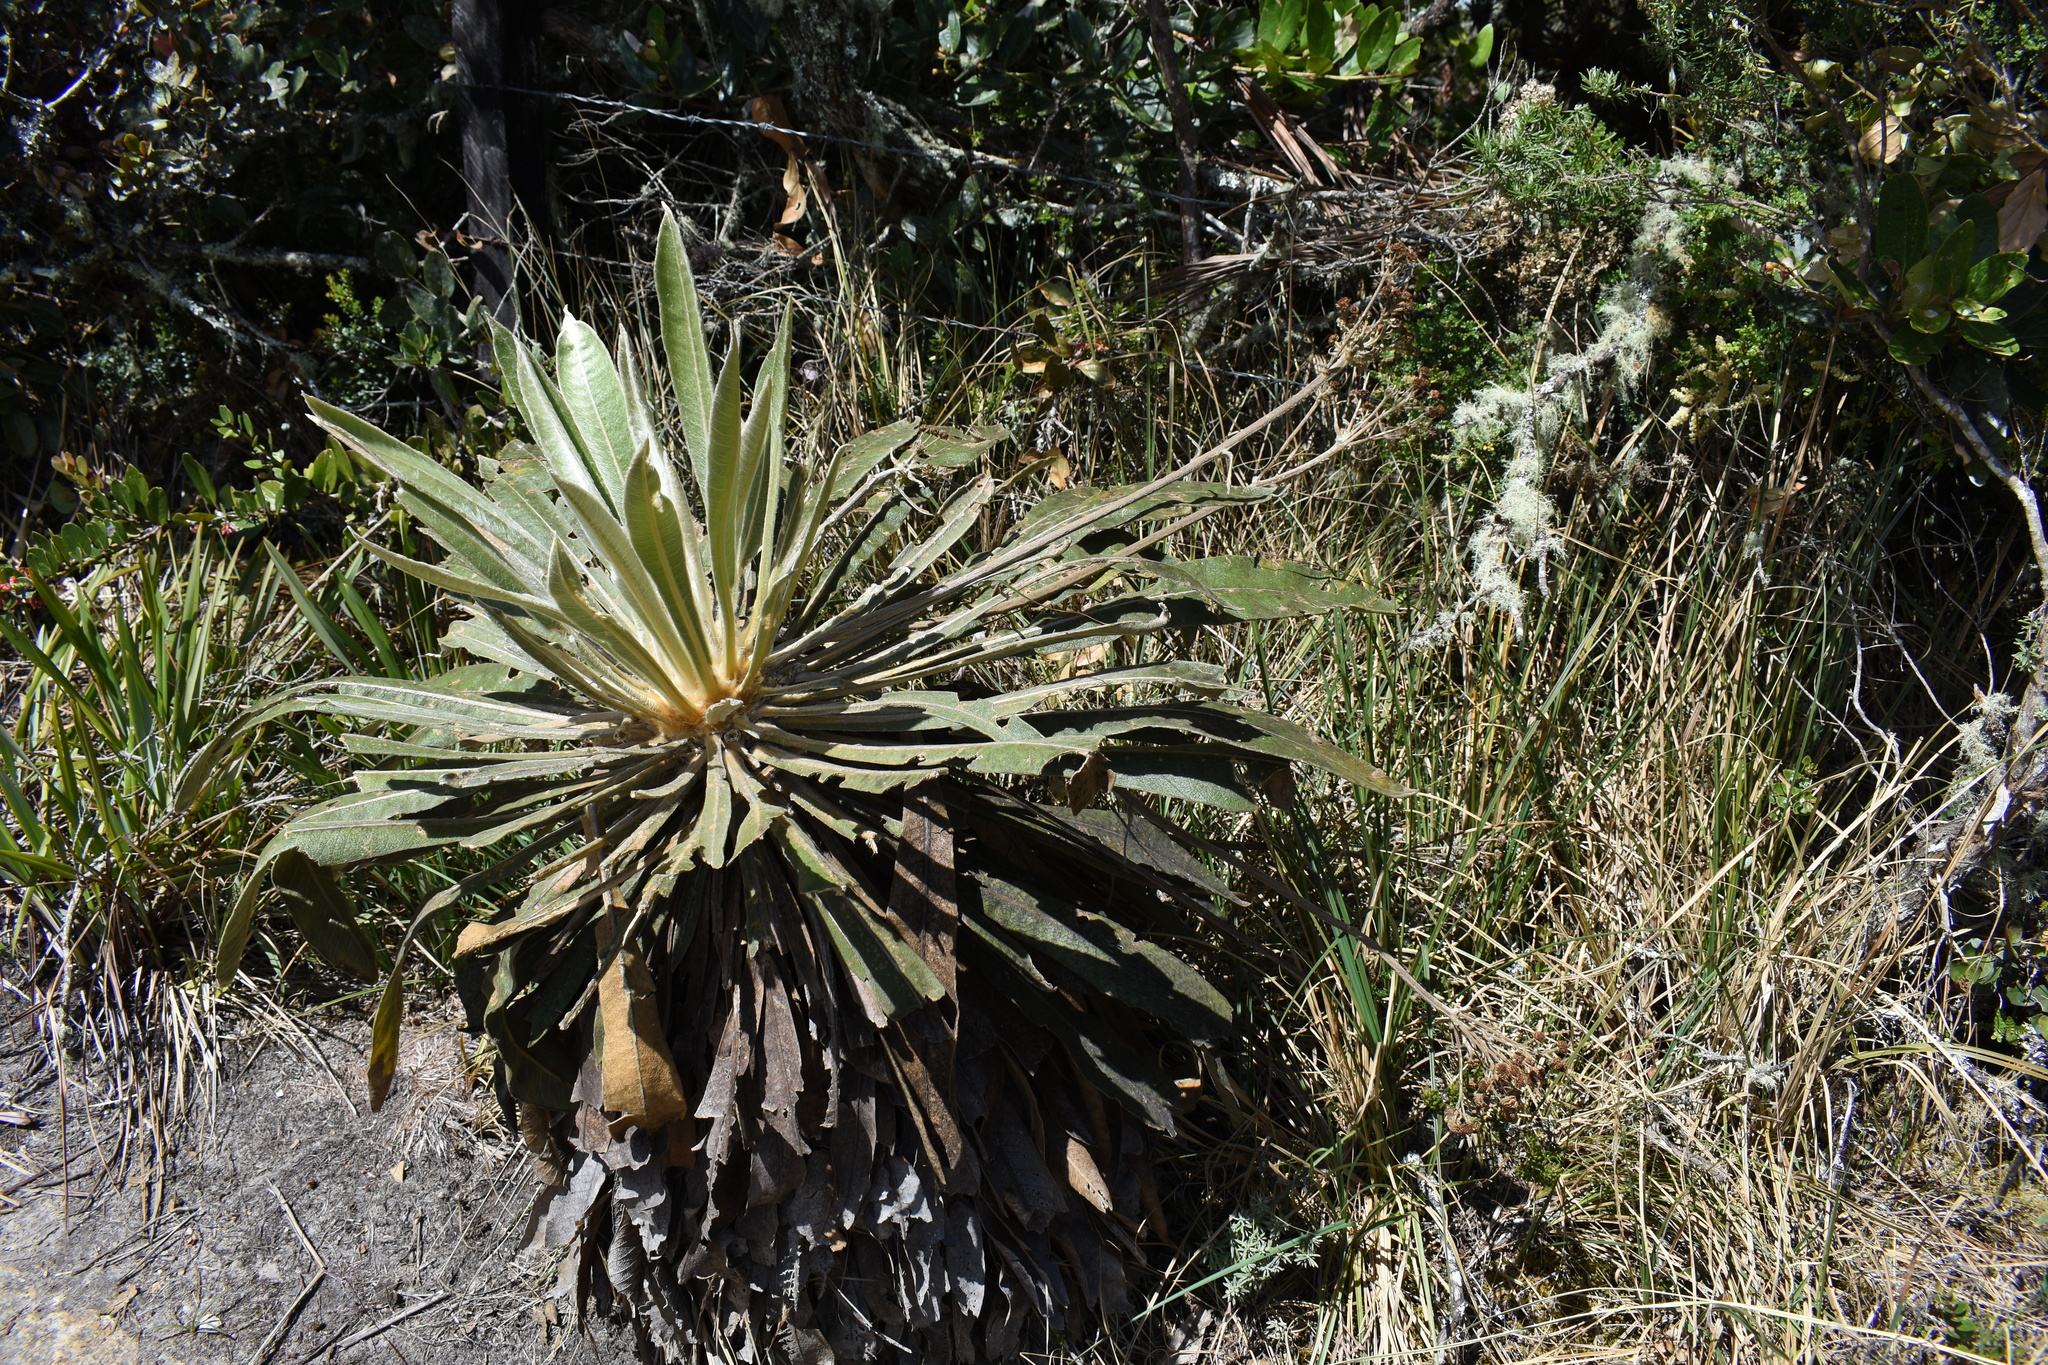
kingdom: Plantae
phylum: Tracheophyta
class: Magnoliopsida
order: Asterales
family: Asteraceae
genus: Espeletia
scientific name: Espeletia corymbosa
